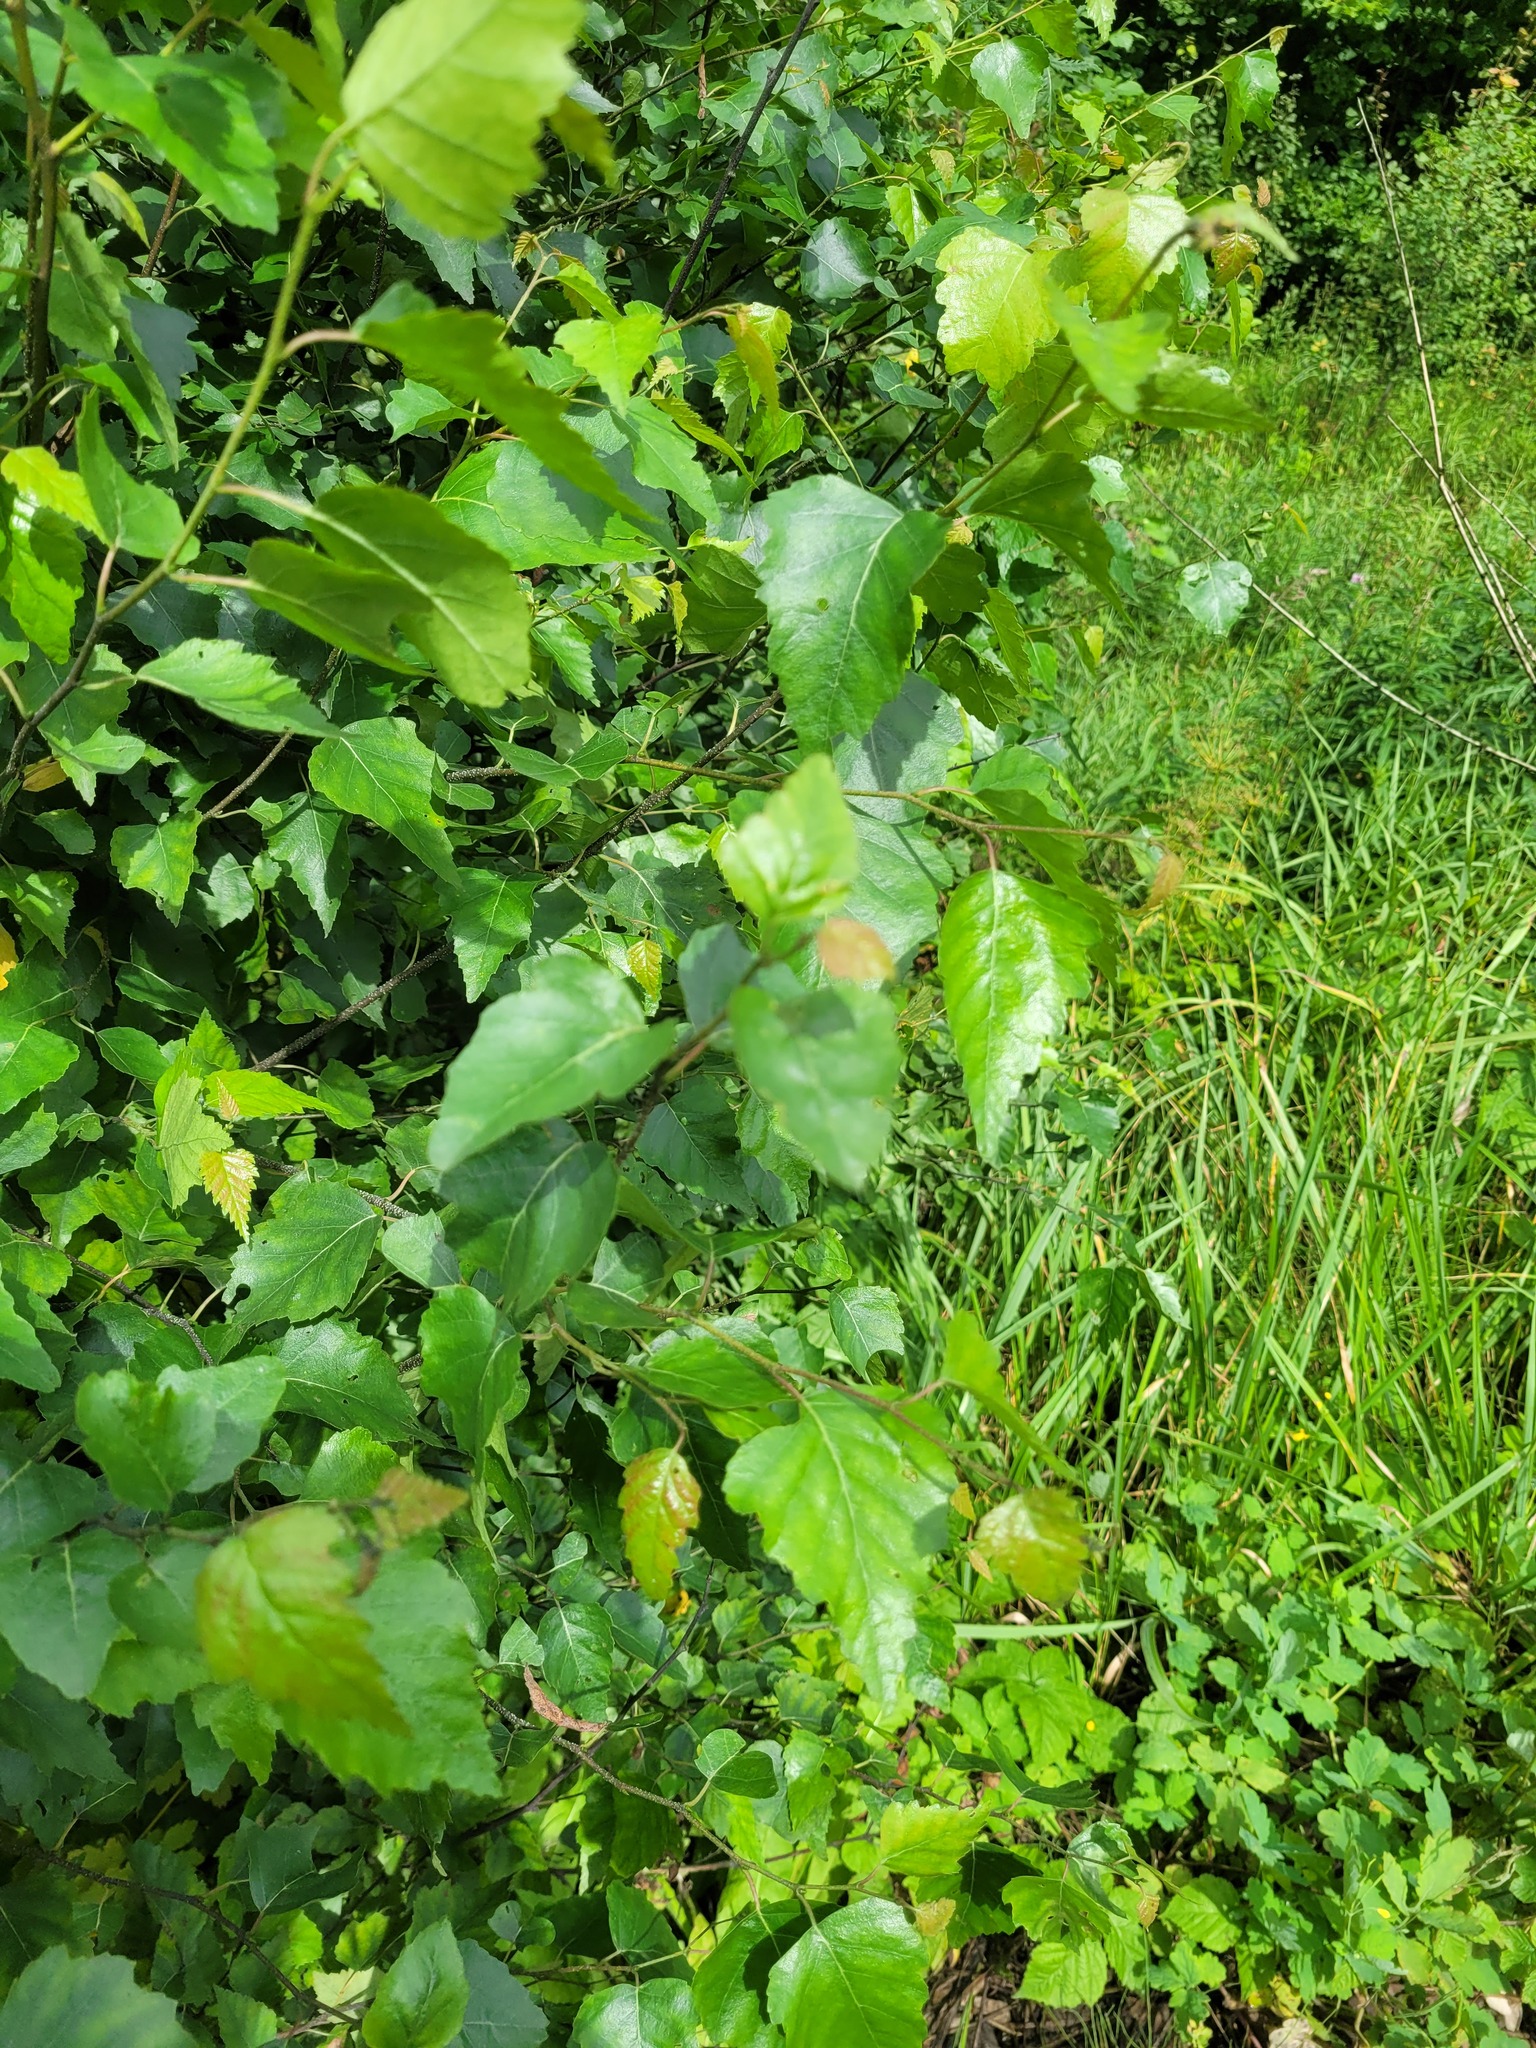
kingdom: Plantae
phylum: Tracheophyta
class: Magnoliopsida
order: Fagales
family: Betulaceae
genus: Betula
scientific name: Betula pendula
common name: Silver birch
